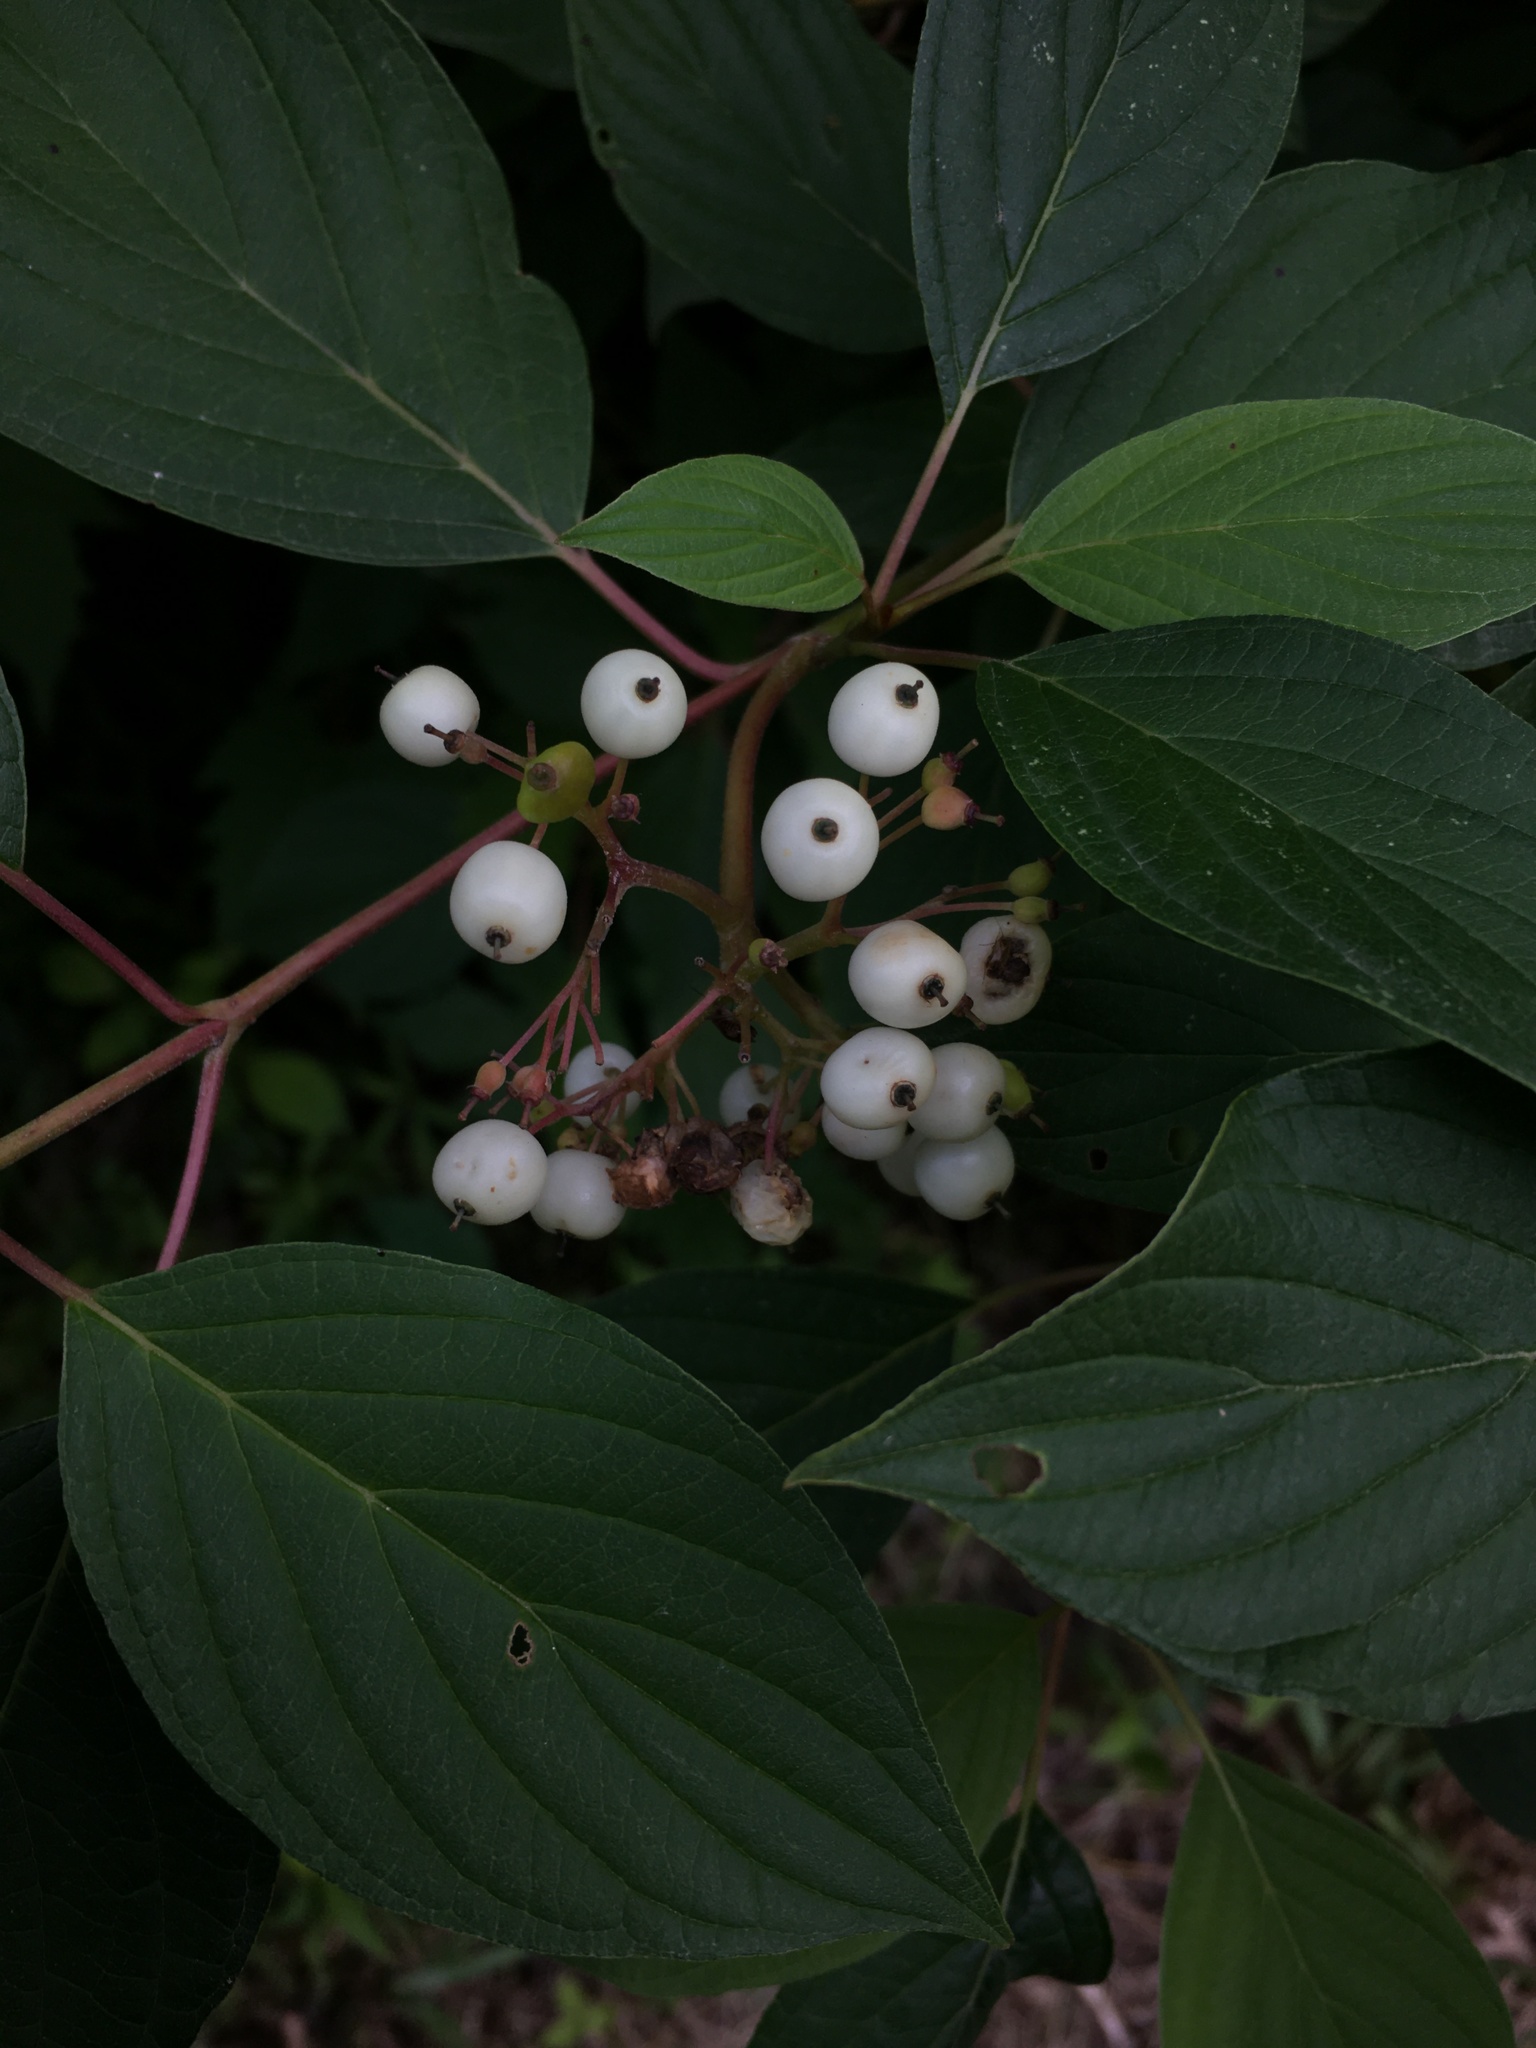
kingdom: Plantae
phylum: Tracheophyta
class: Magnoliopsida
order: Cornales
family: Cornaceae
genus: Cornus
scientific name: Cornus sericea
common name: Red-osier dogwood
